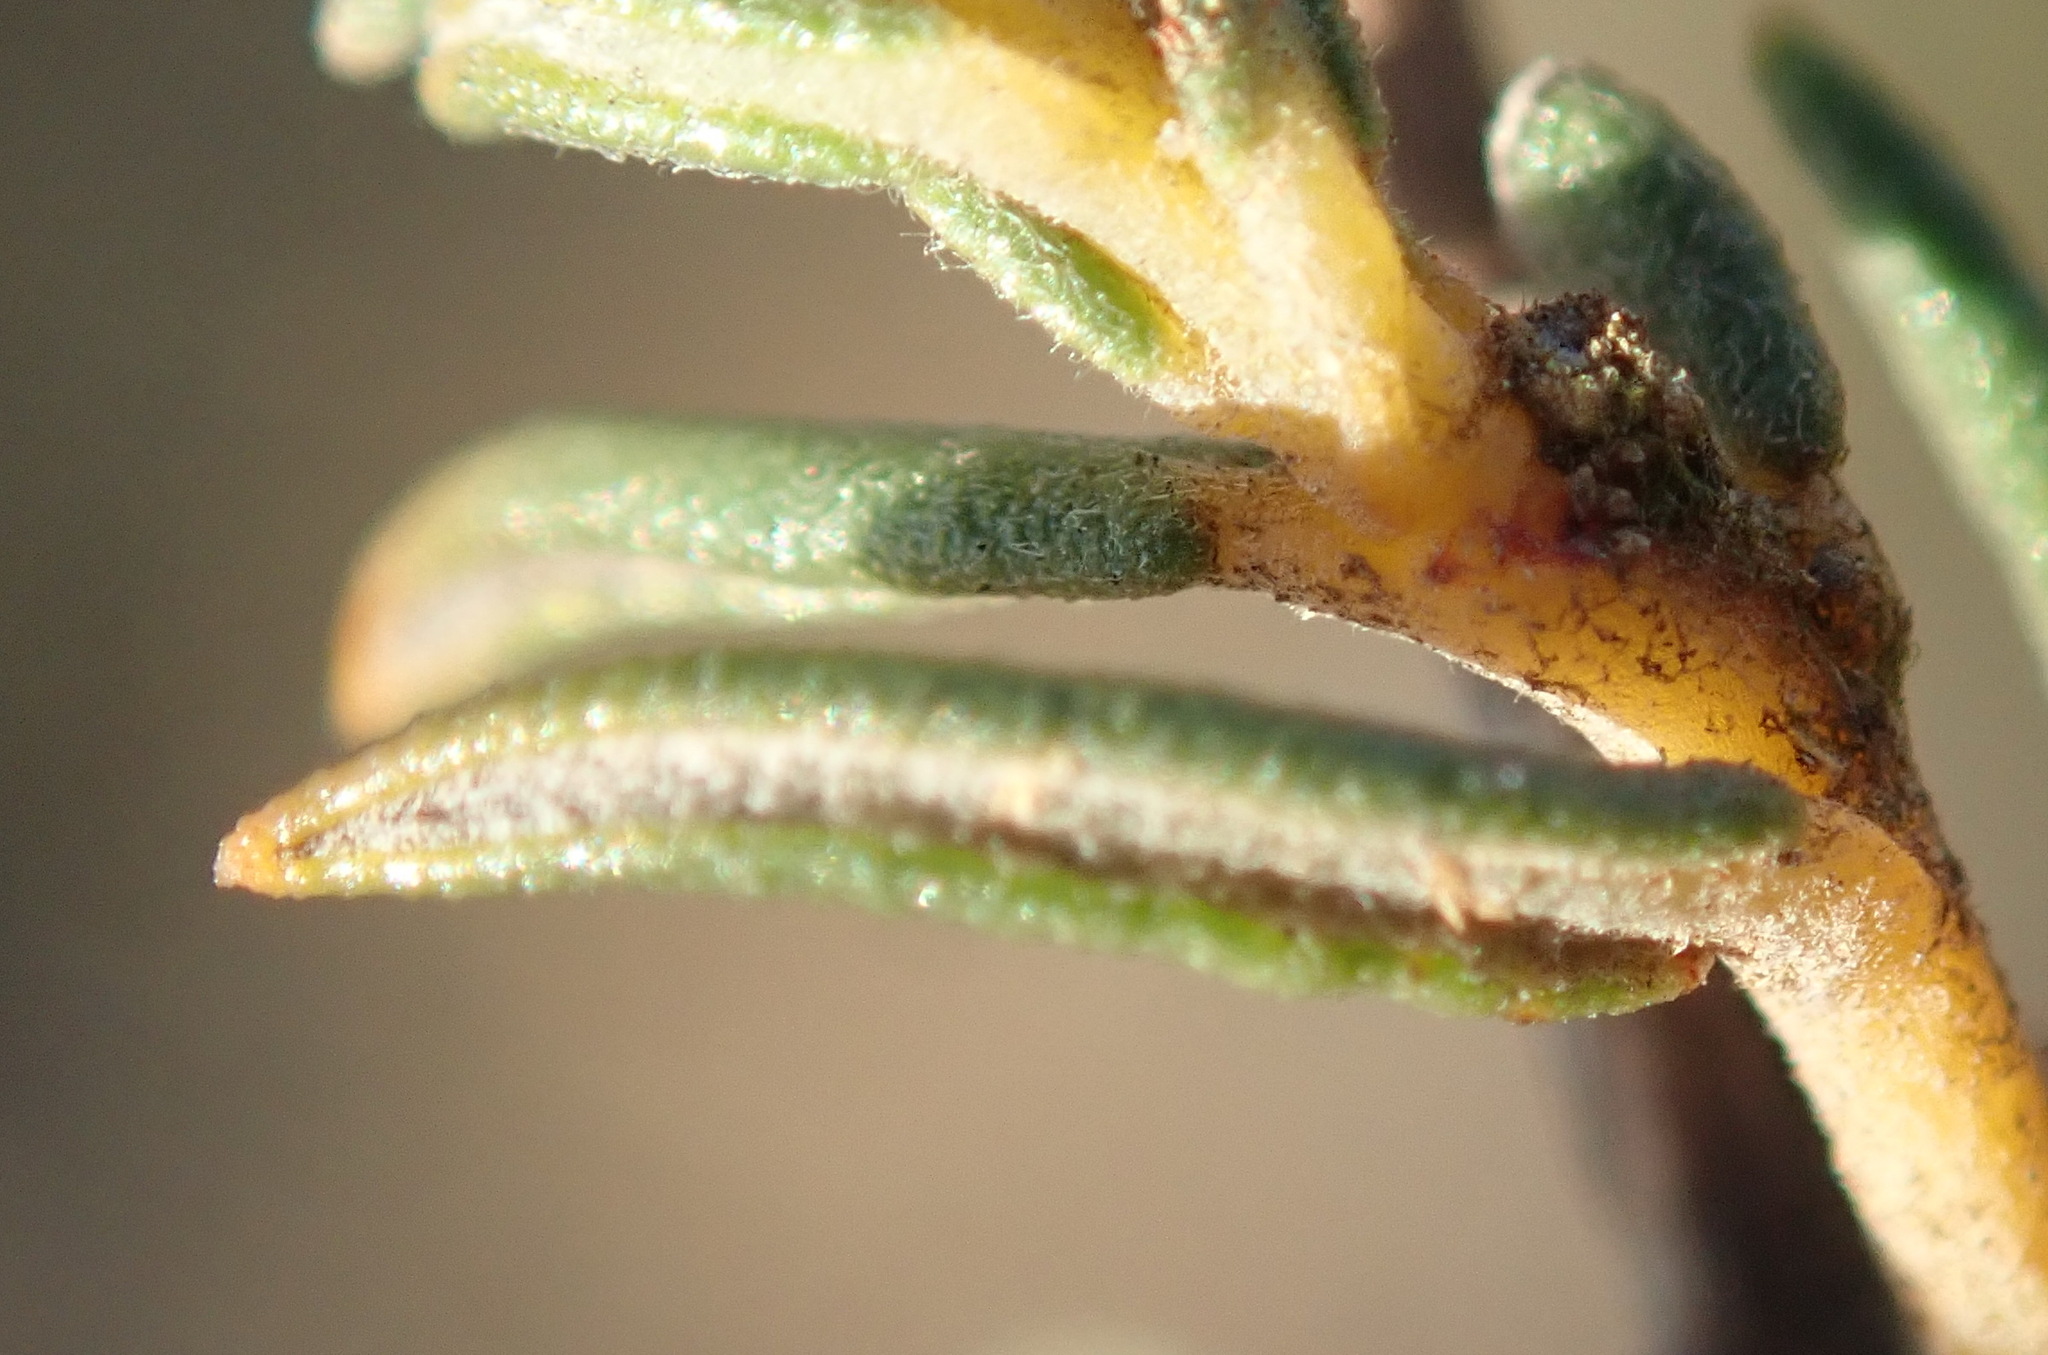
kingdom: Plantae
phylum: Tracheophyta
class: Magnoliopsida
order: Rosales
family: Rhamnaceae
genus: Phylica
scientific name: Phylica strigulosa
